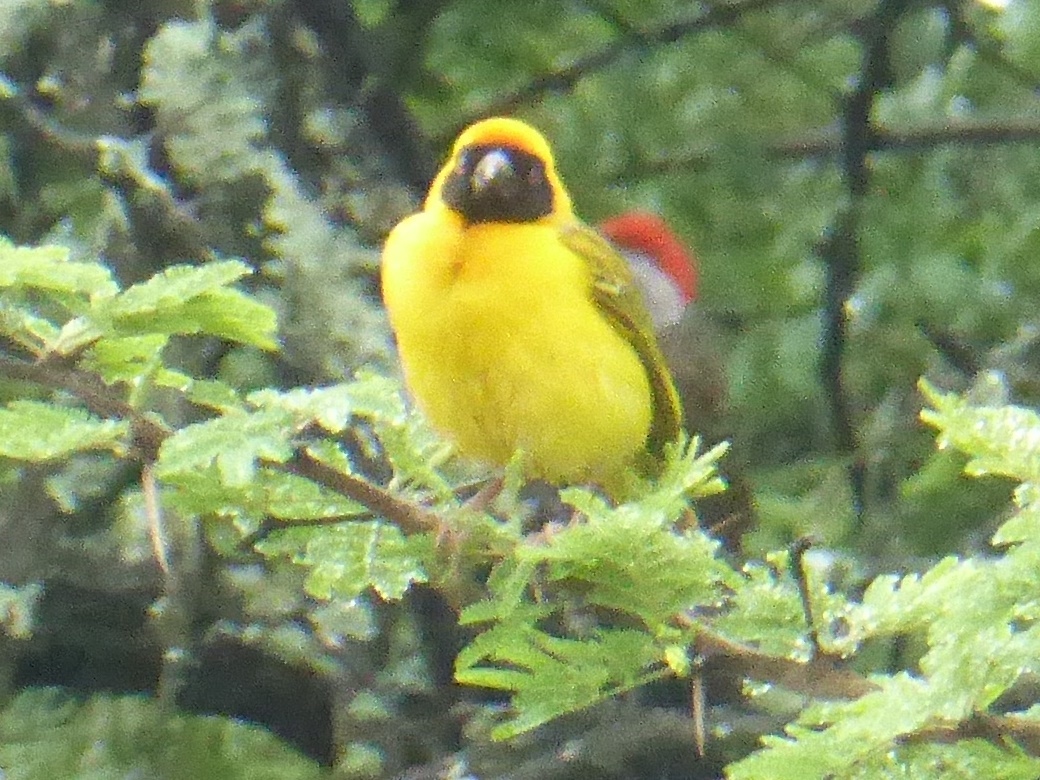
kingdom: Animalia
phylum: Chordata
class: Aves
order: Passeriformes
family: Ploceidae
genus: Ploceus
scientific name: Ploceus velatus
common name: Southern masked weaver
